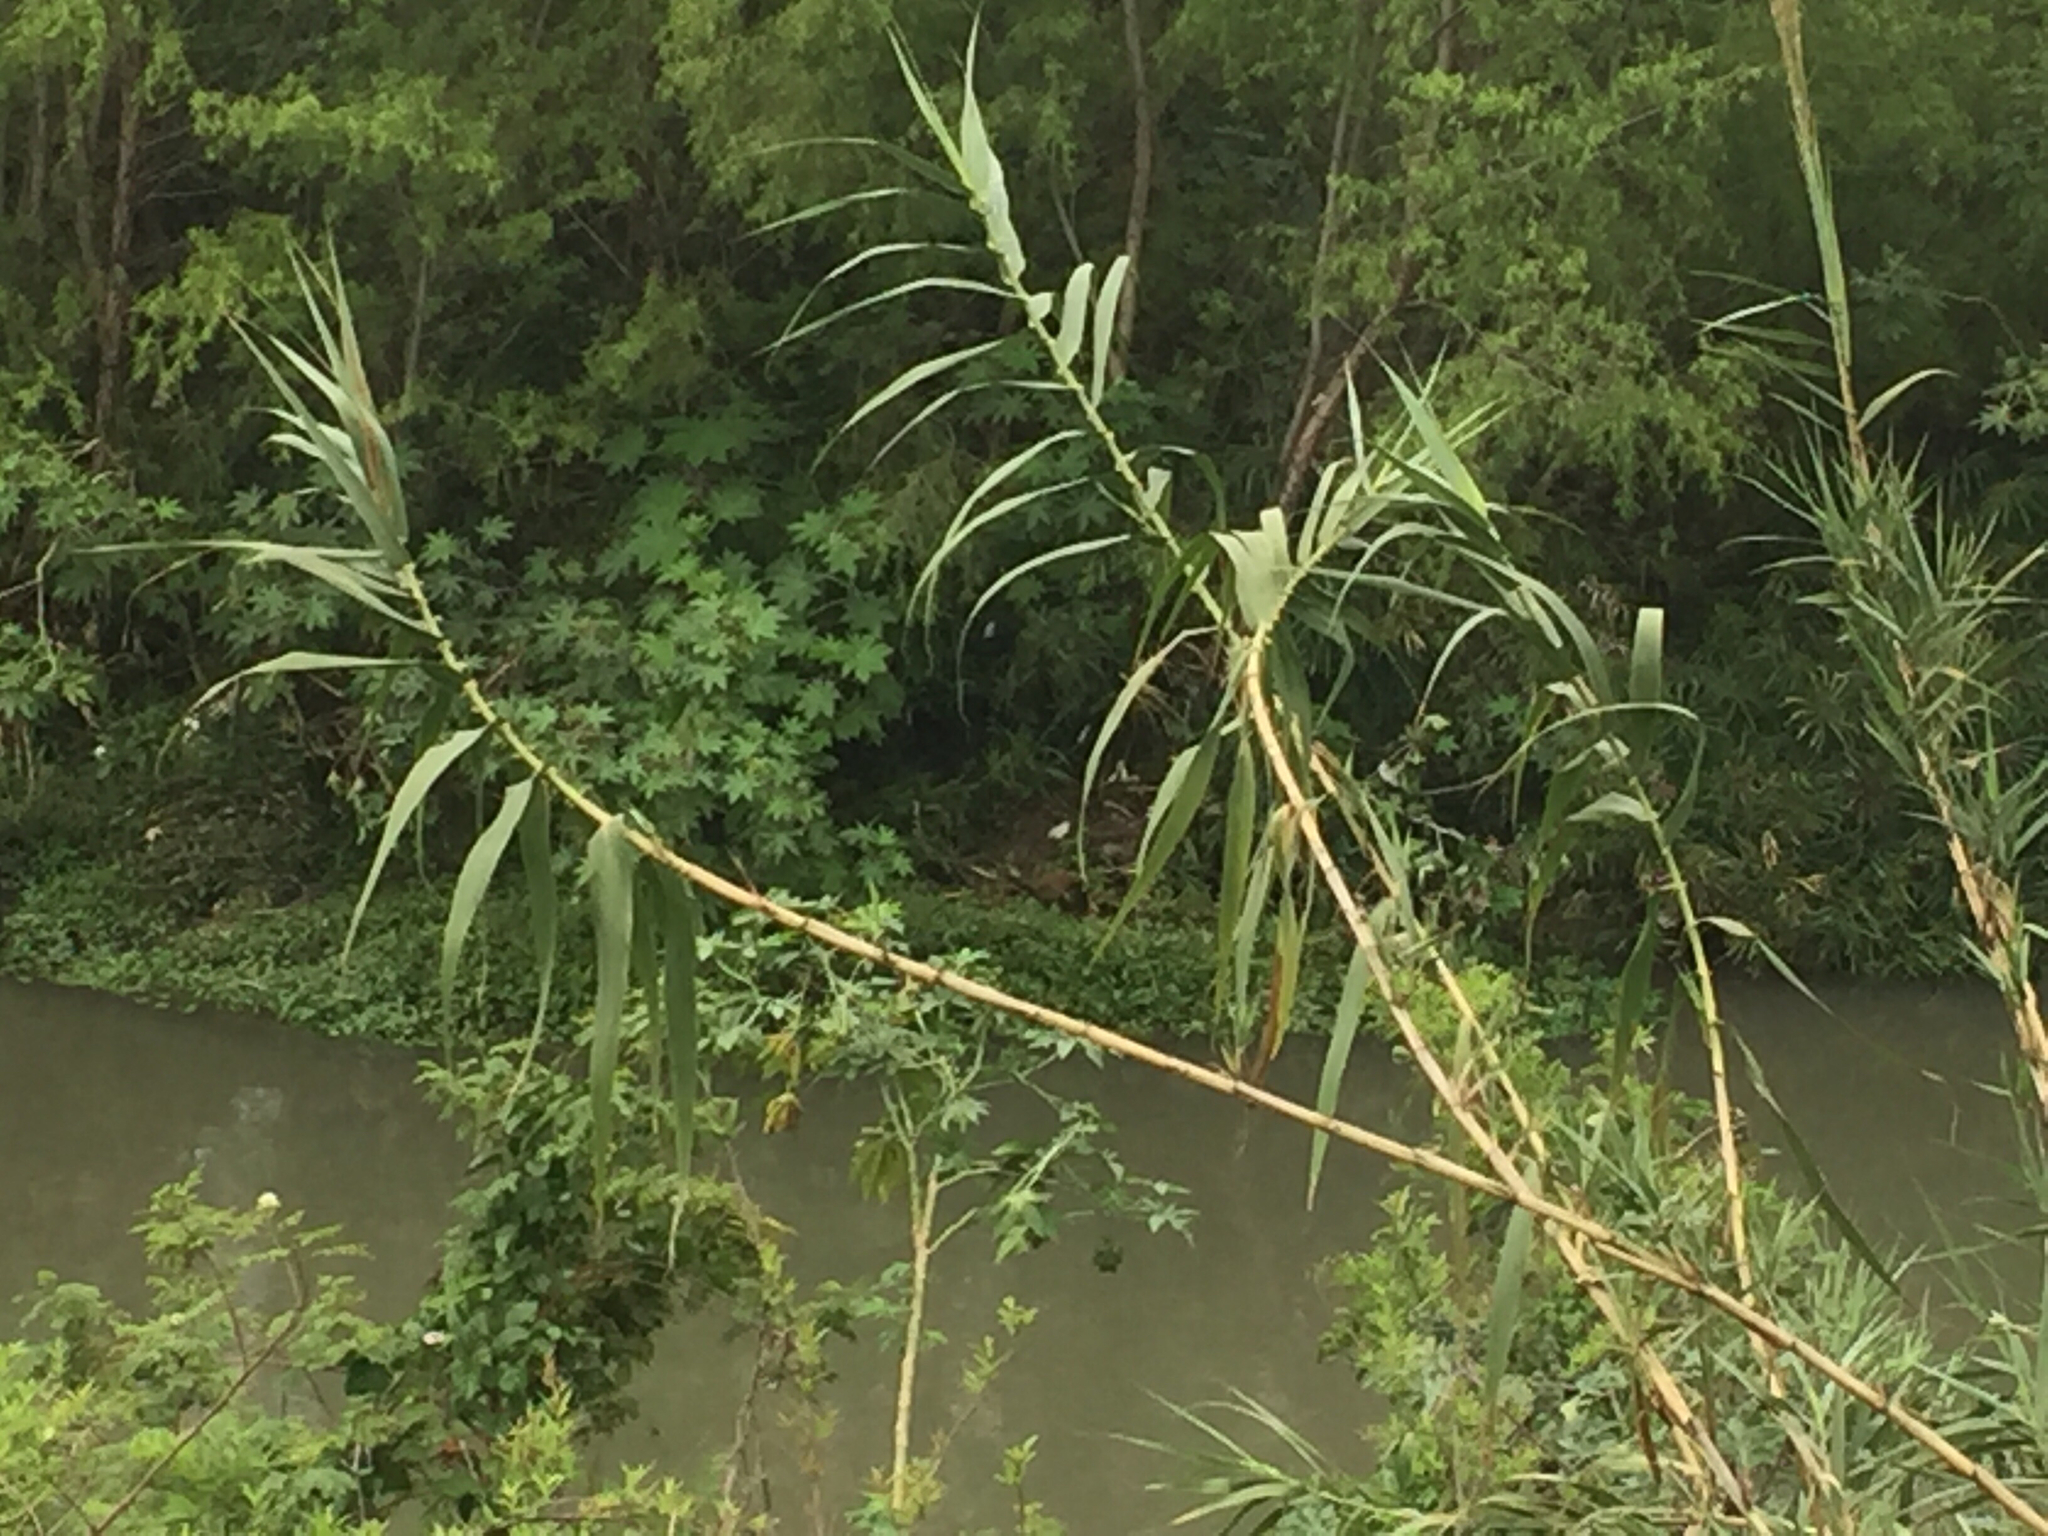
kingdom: Plantae
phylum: Tracheophyta
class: Liliopsida
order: Poales
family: Poaceae
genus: Arundo
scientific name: Arundo donax
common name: Giant reed
